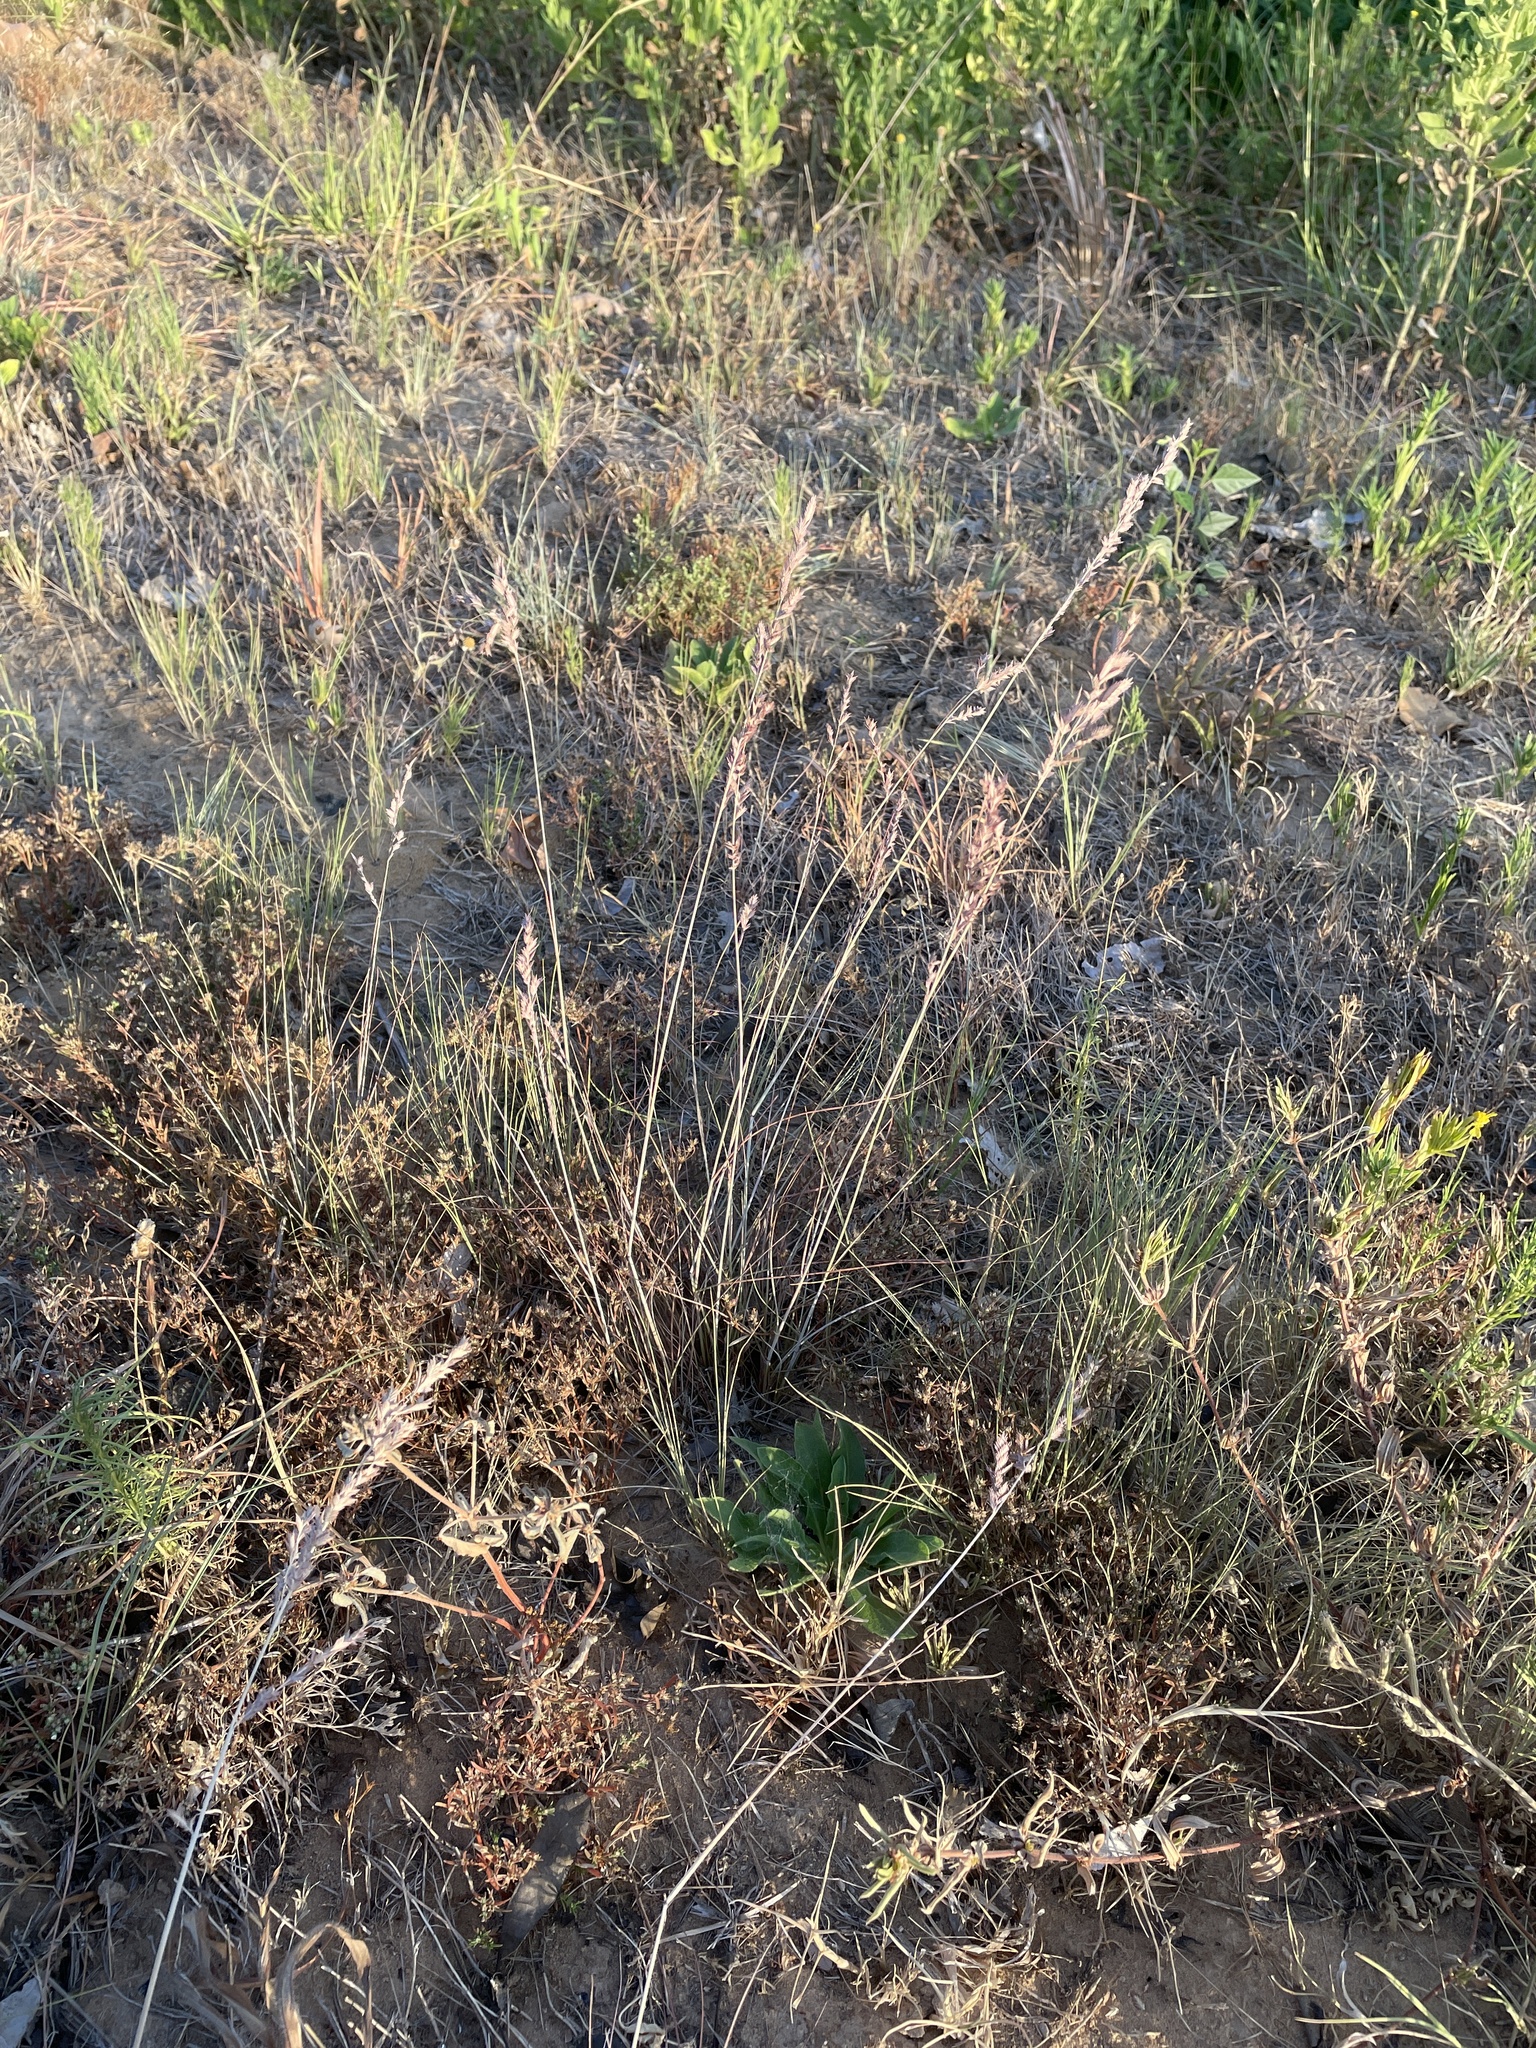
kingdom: Plantae
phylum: Tracheophyta
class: Liliopsida
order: Poales
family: Poaceae
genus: Eragrostis
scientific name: Eragrostis secundiflora
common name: Red love grass
